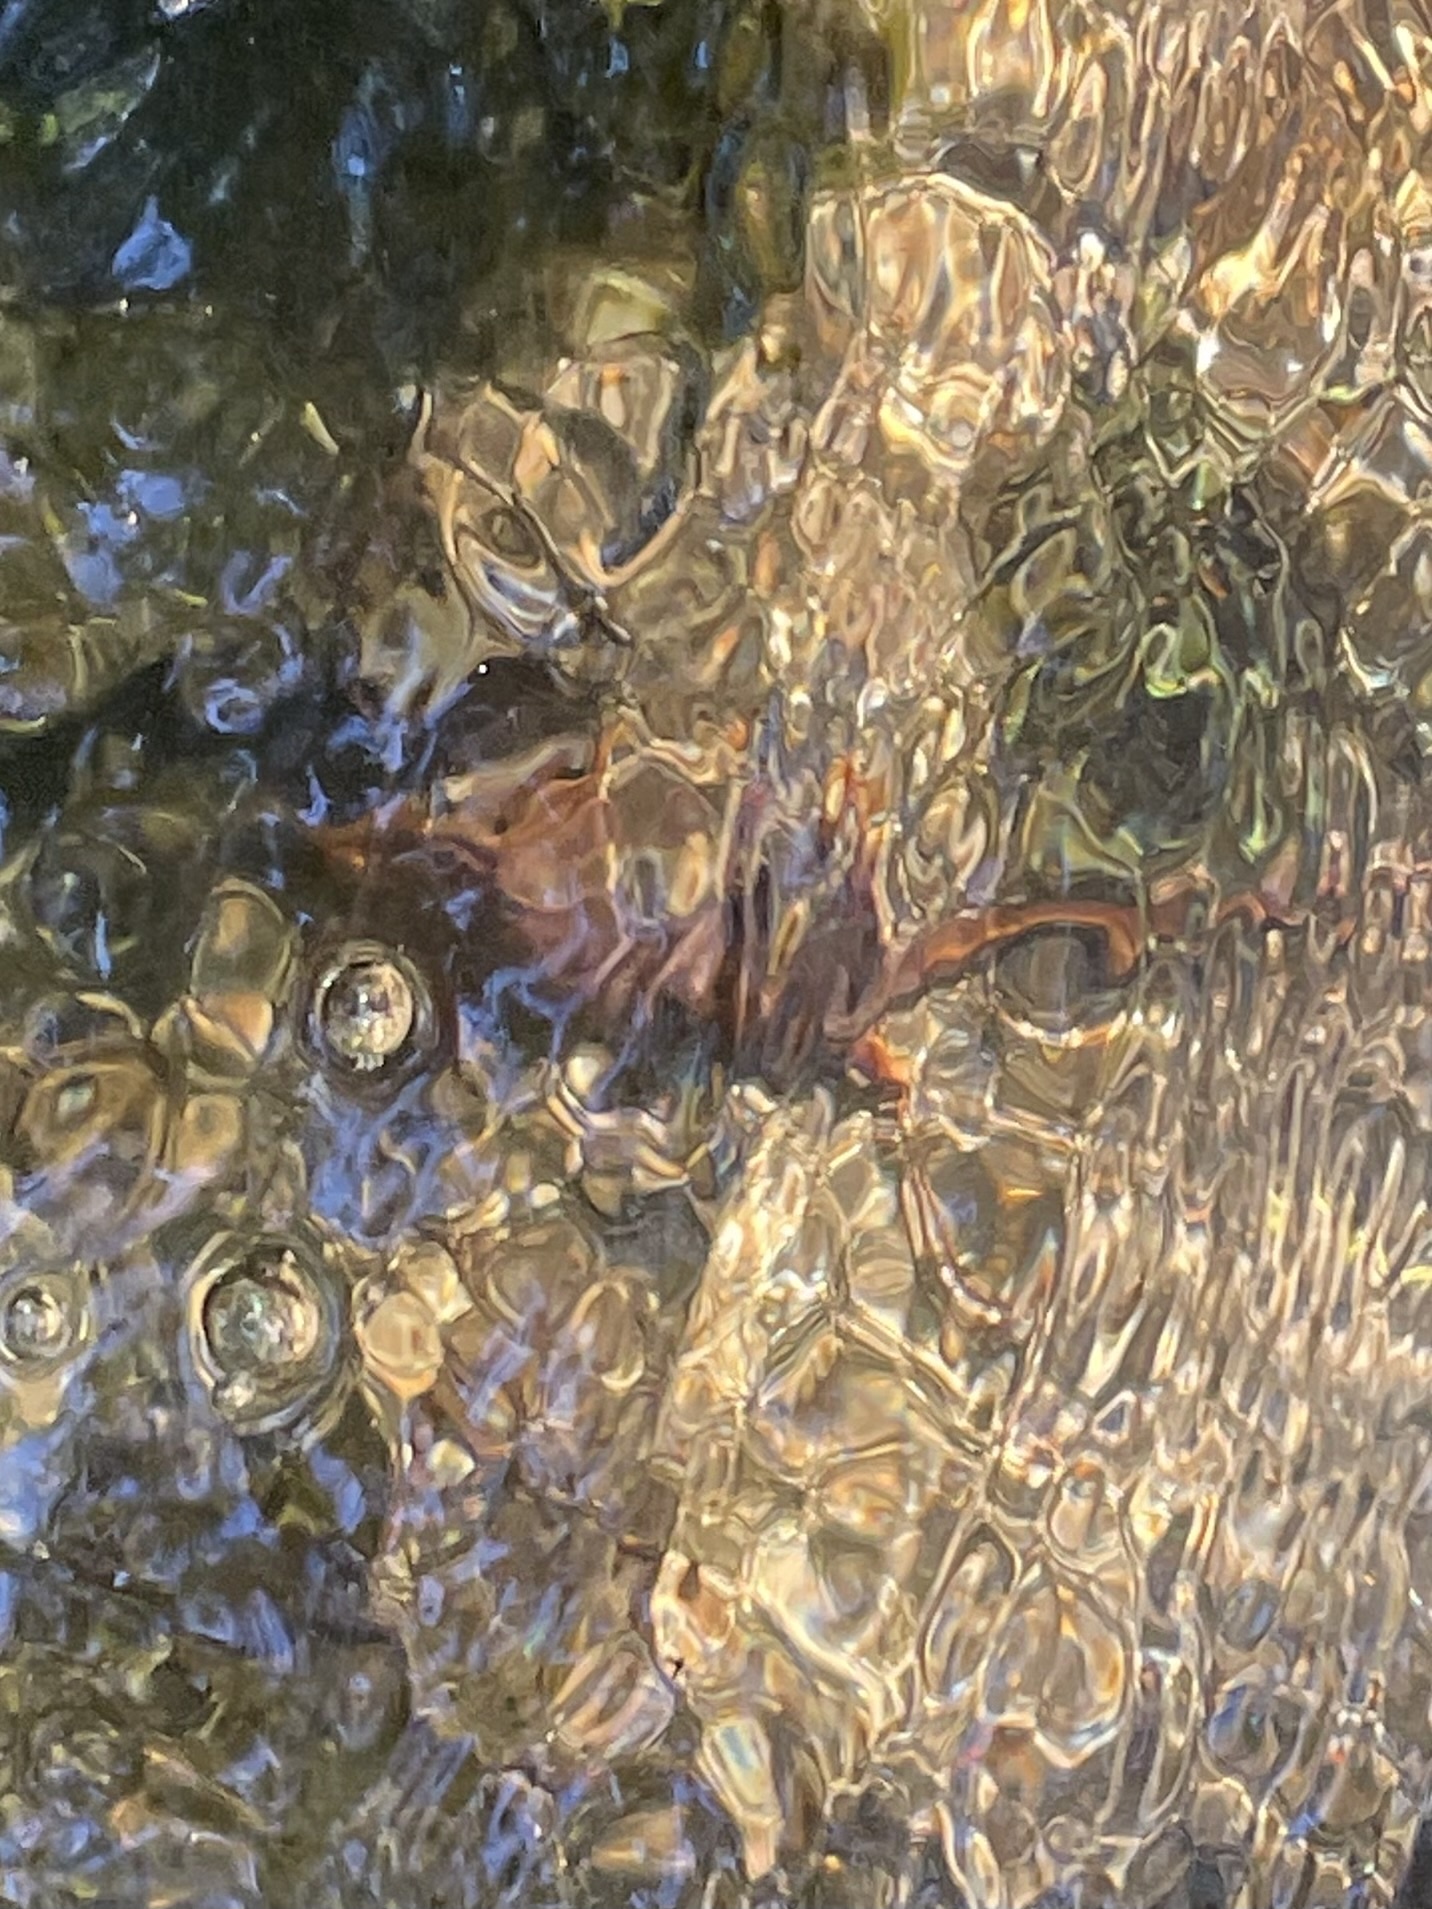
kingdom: Animalia
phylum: Chordata
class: Amphibia
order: Caudata
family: Salamandridae
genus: Taricha
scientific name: Taricha sierrae
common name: Sierra newt
